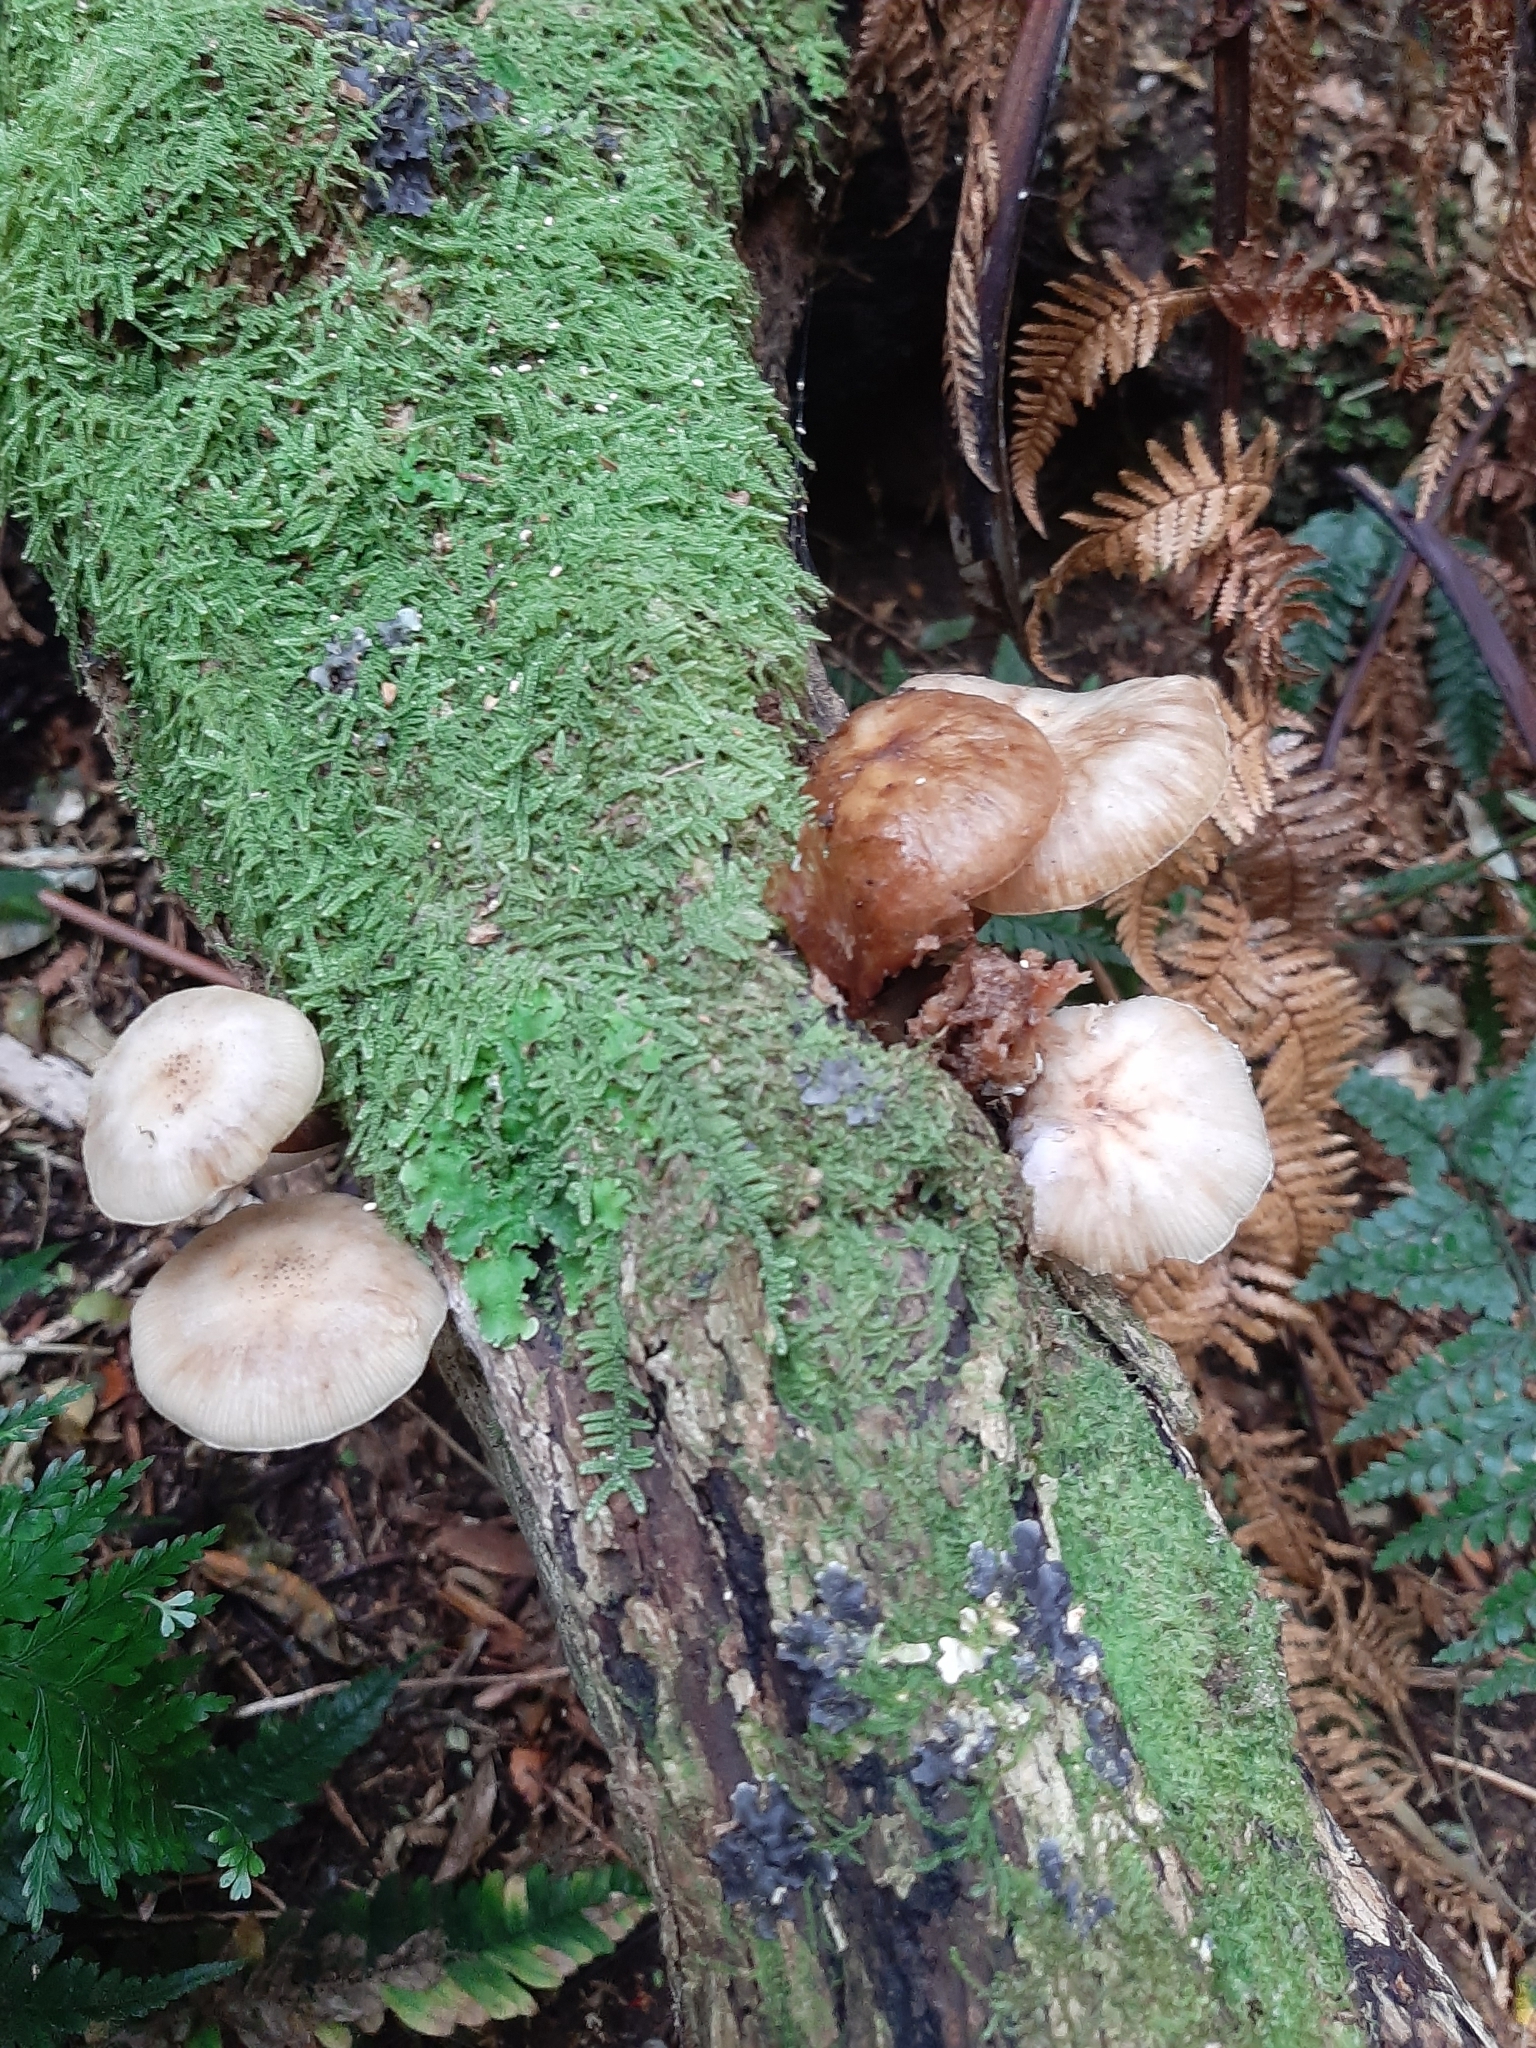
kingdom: Fungi
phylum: Basidiomycota
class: Agaricomycetes
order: Agaricales
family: Physalacriaceae
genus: Armillaria
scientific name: Armillaria novae-zelandiae
